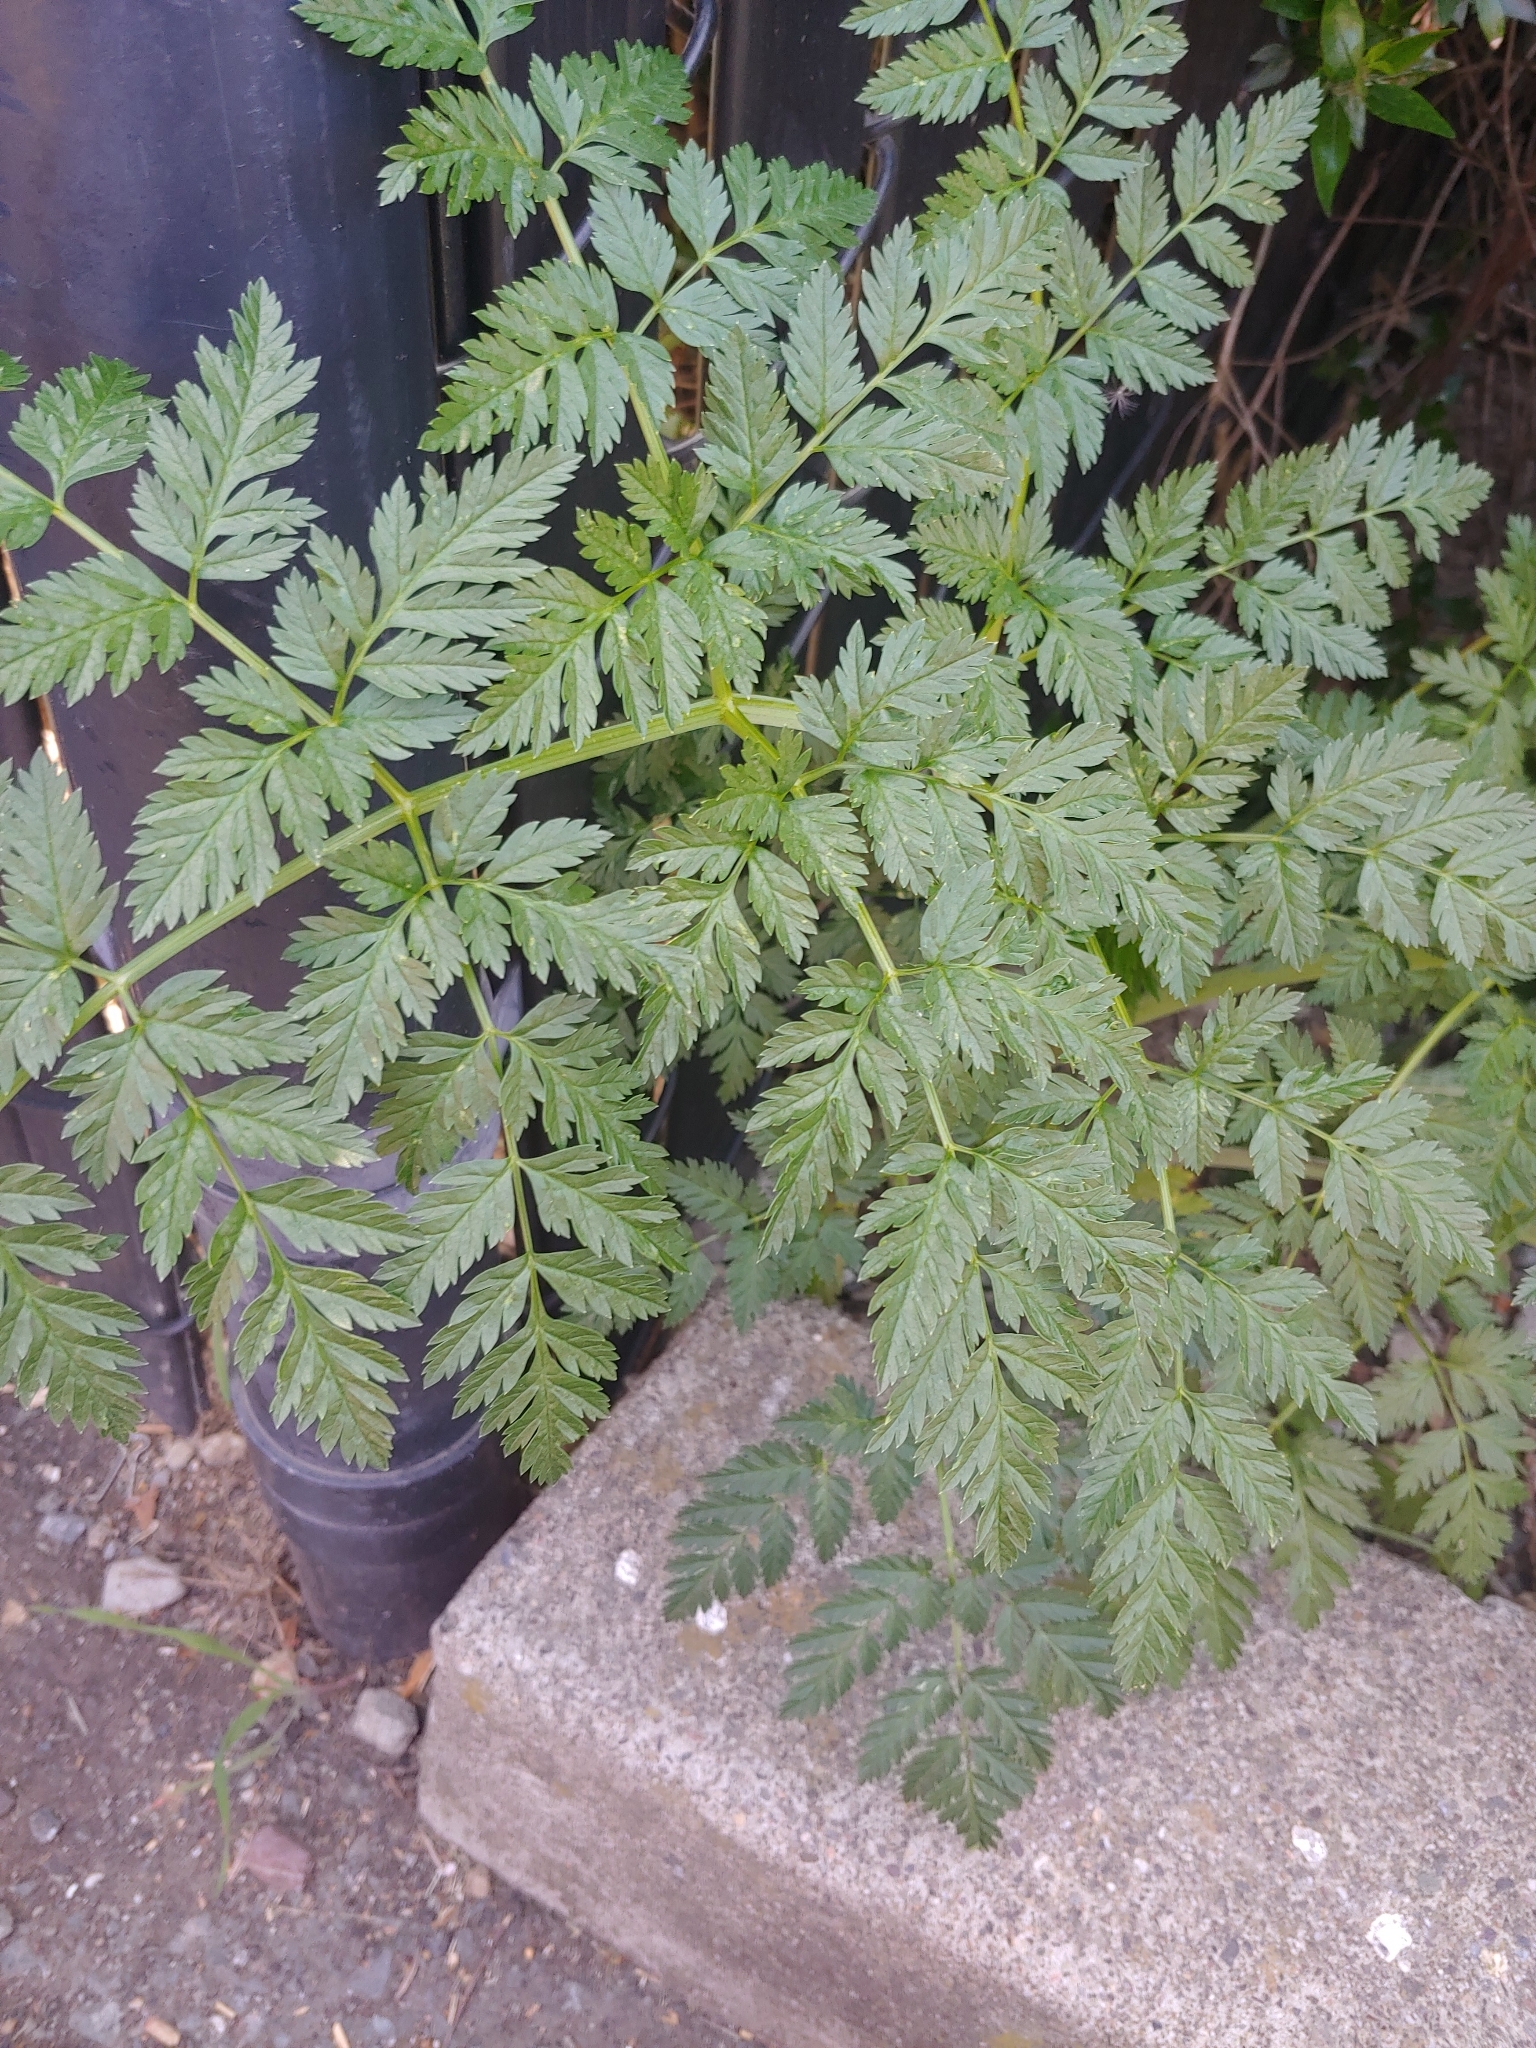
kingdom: Plantae
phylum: Tracheophyta
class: Magnoliopsida
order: Apiales
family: Apiaceae
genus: Conium
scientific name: Conium maculatum
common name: Hemlock
